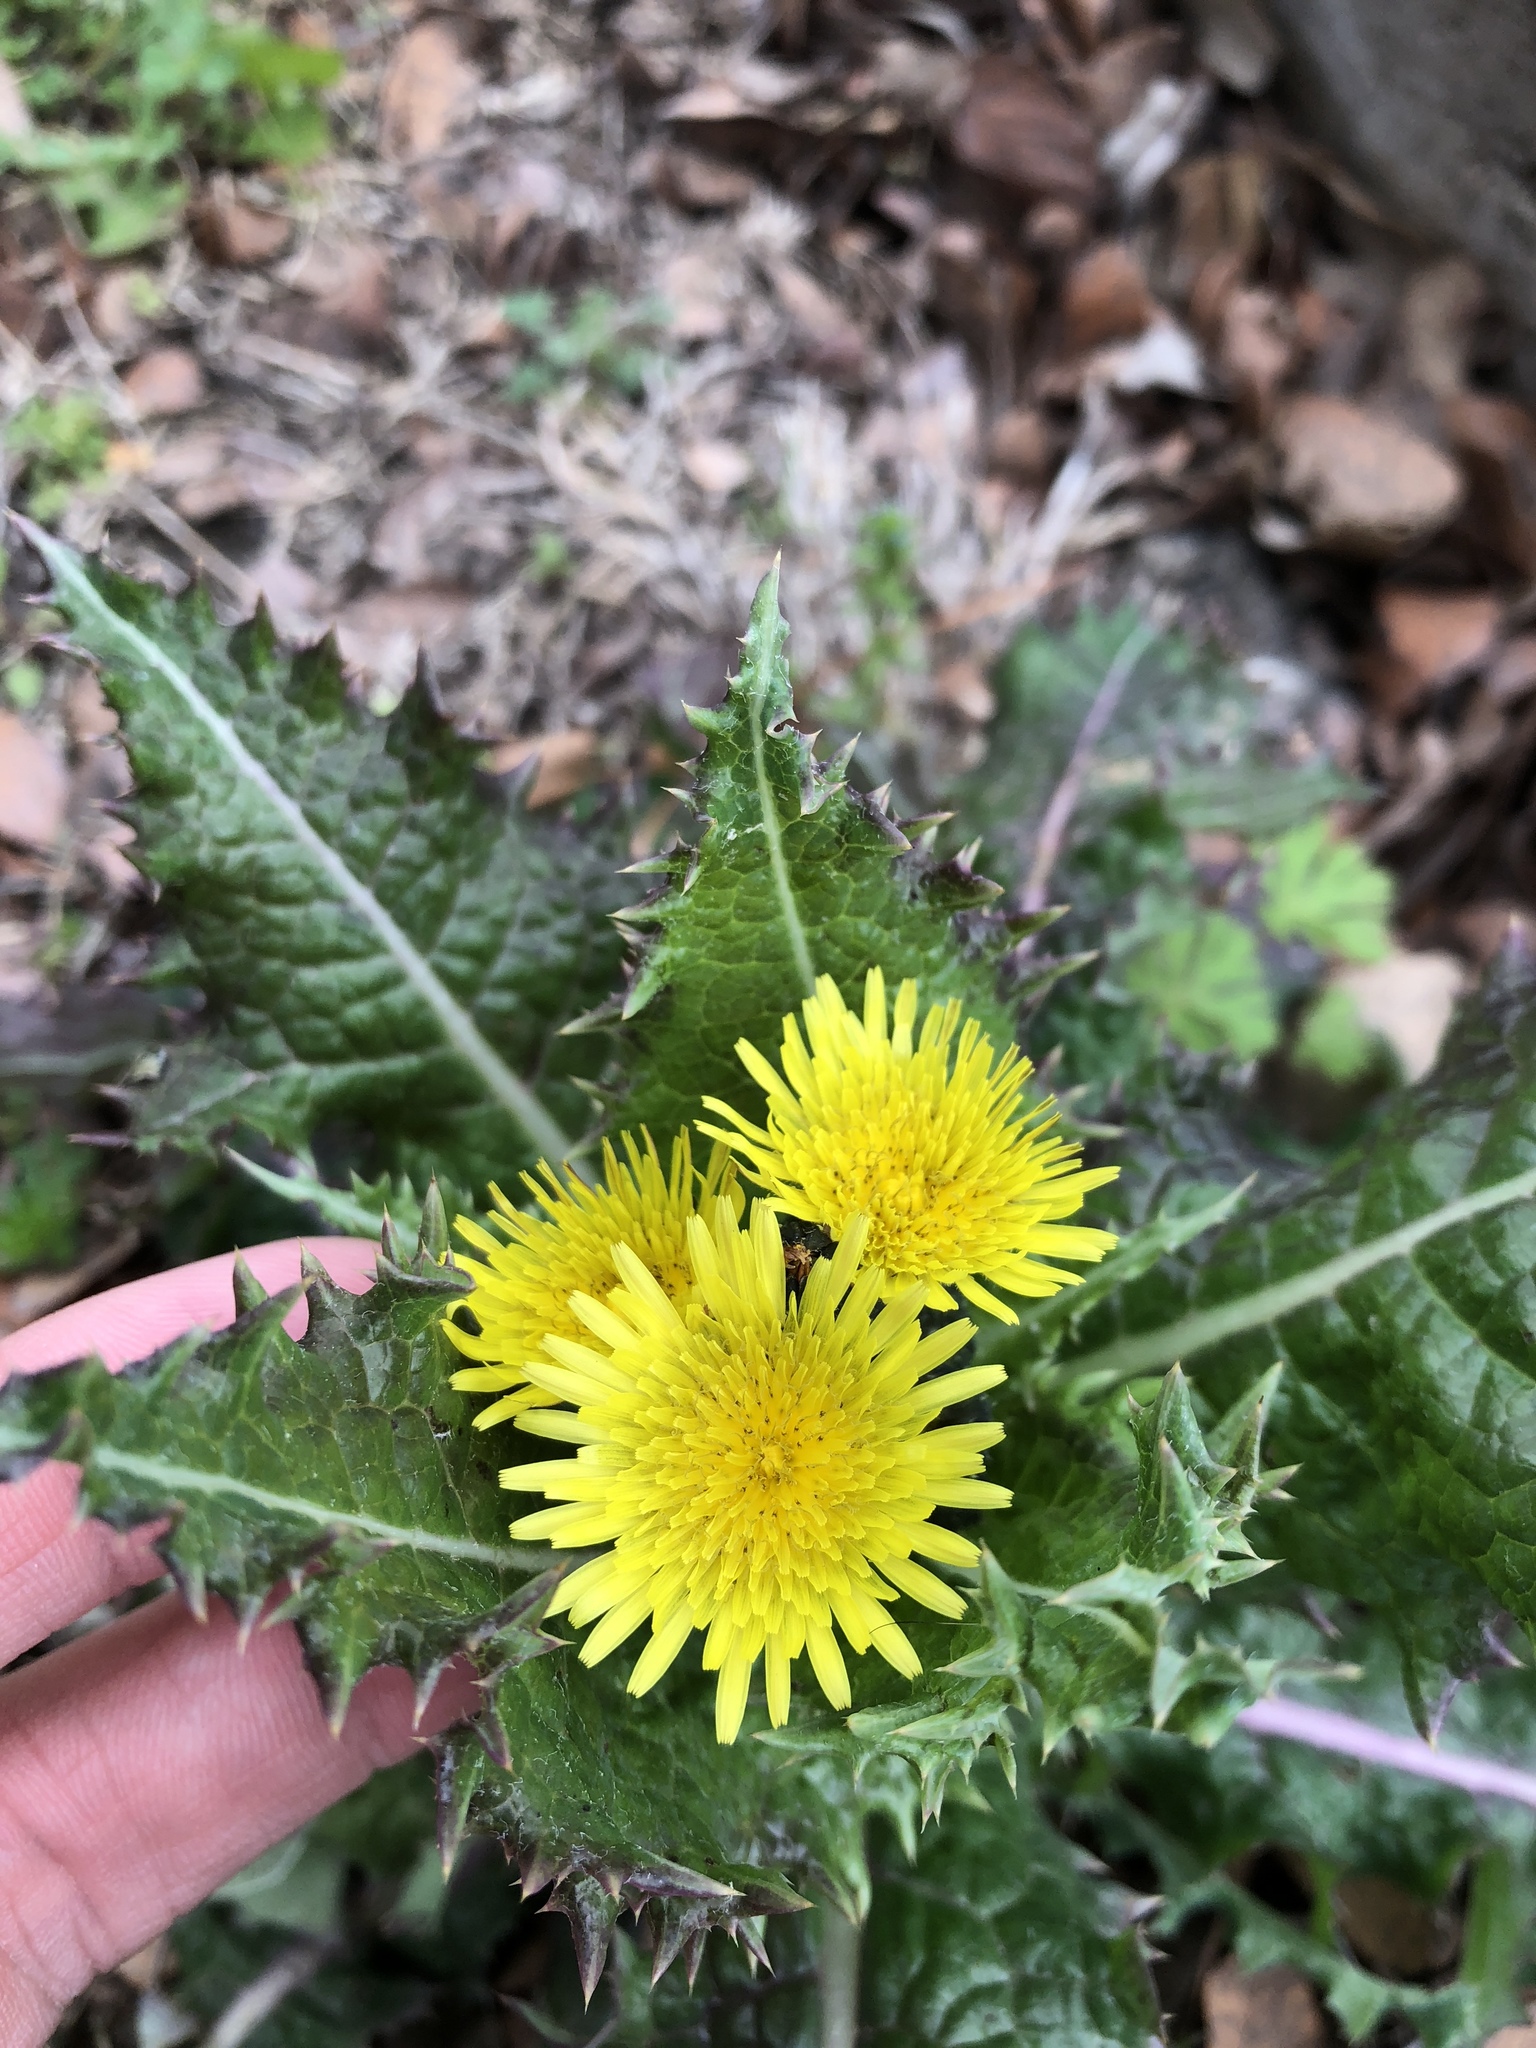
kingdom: Plantae
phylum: Tracheophyta
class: Magnoliopsida
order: Asterales
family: Asteraceae
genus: Sonchus
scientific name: Sonchus asper
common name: Prickly sow-thistle
